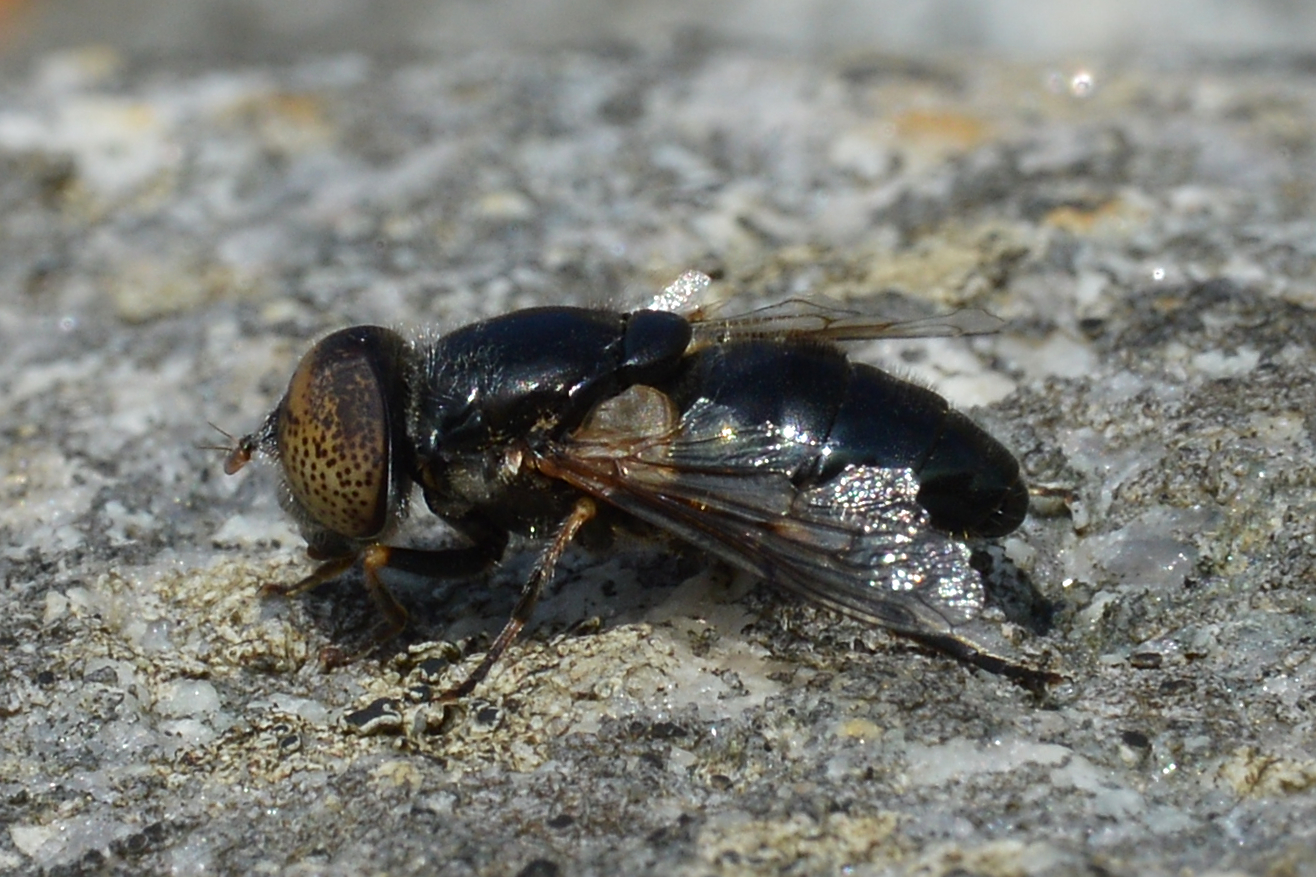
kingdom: Animalia
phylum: Arthropoda
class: Insecta
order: Diptera
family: Syrphidae
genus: Eristalinus
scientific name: Eristalinus aeneus
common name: Syrphid fly
